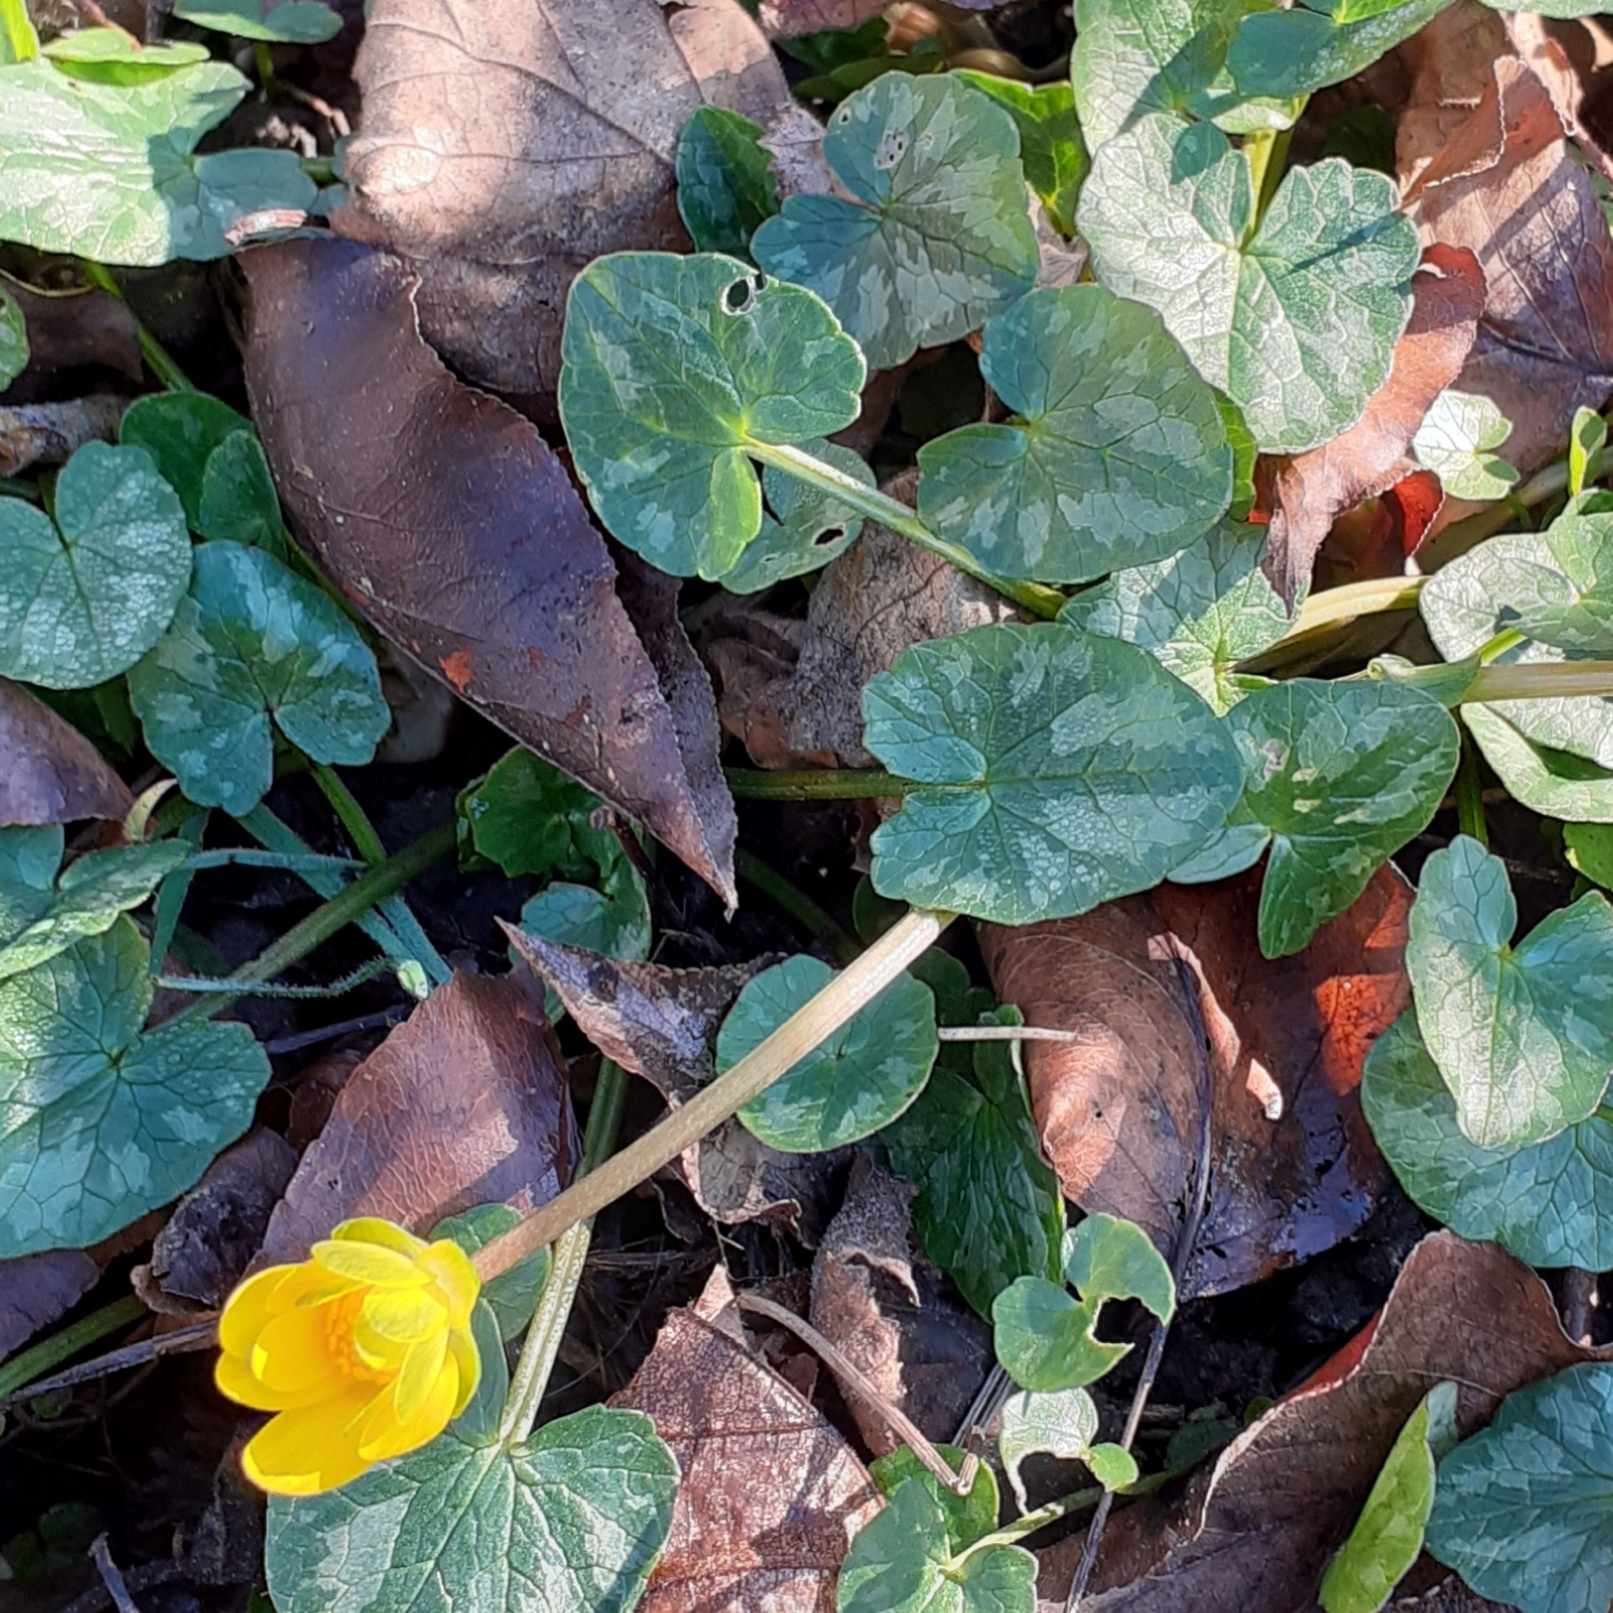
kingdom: Plantae
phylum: Tracheophyta
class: Magnoliopsida
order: Ranunculales
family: Ranunculaceae
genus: Ficaria
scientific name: Ficaria verna
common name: Lesser celandine
